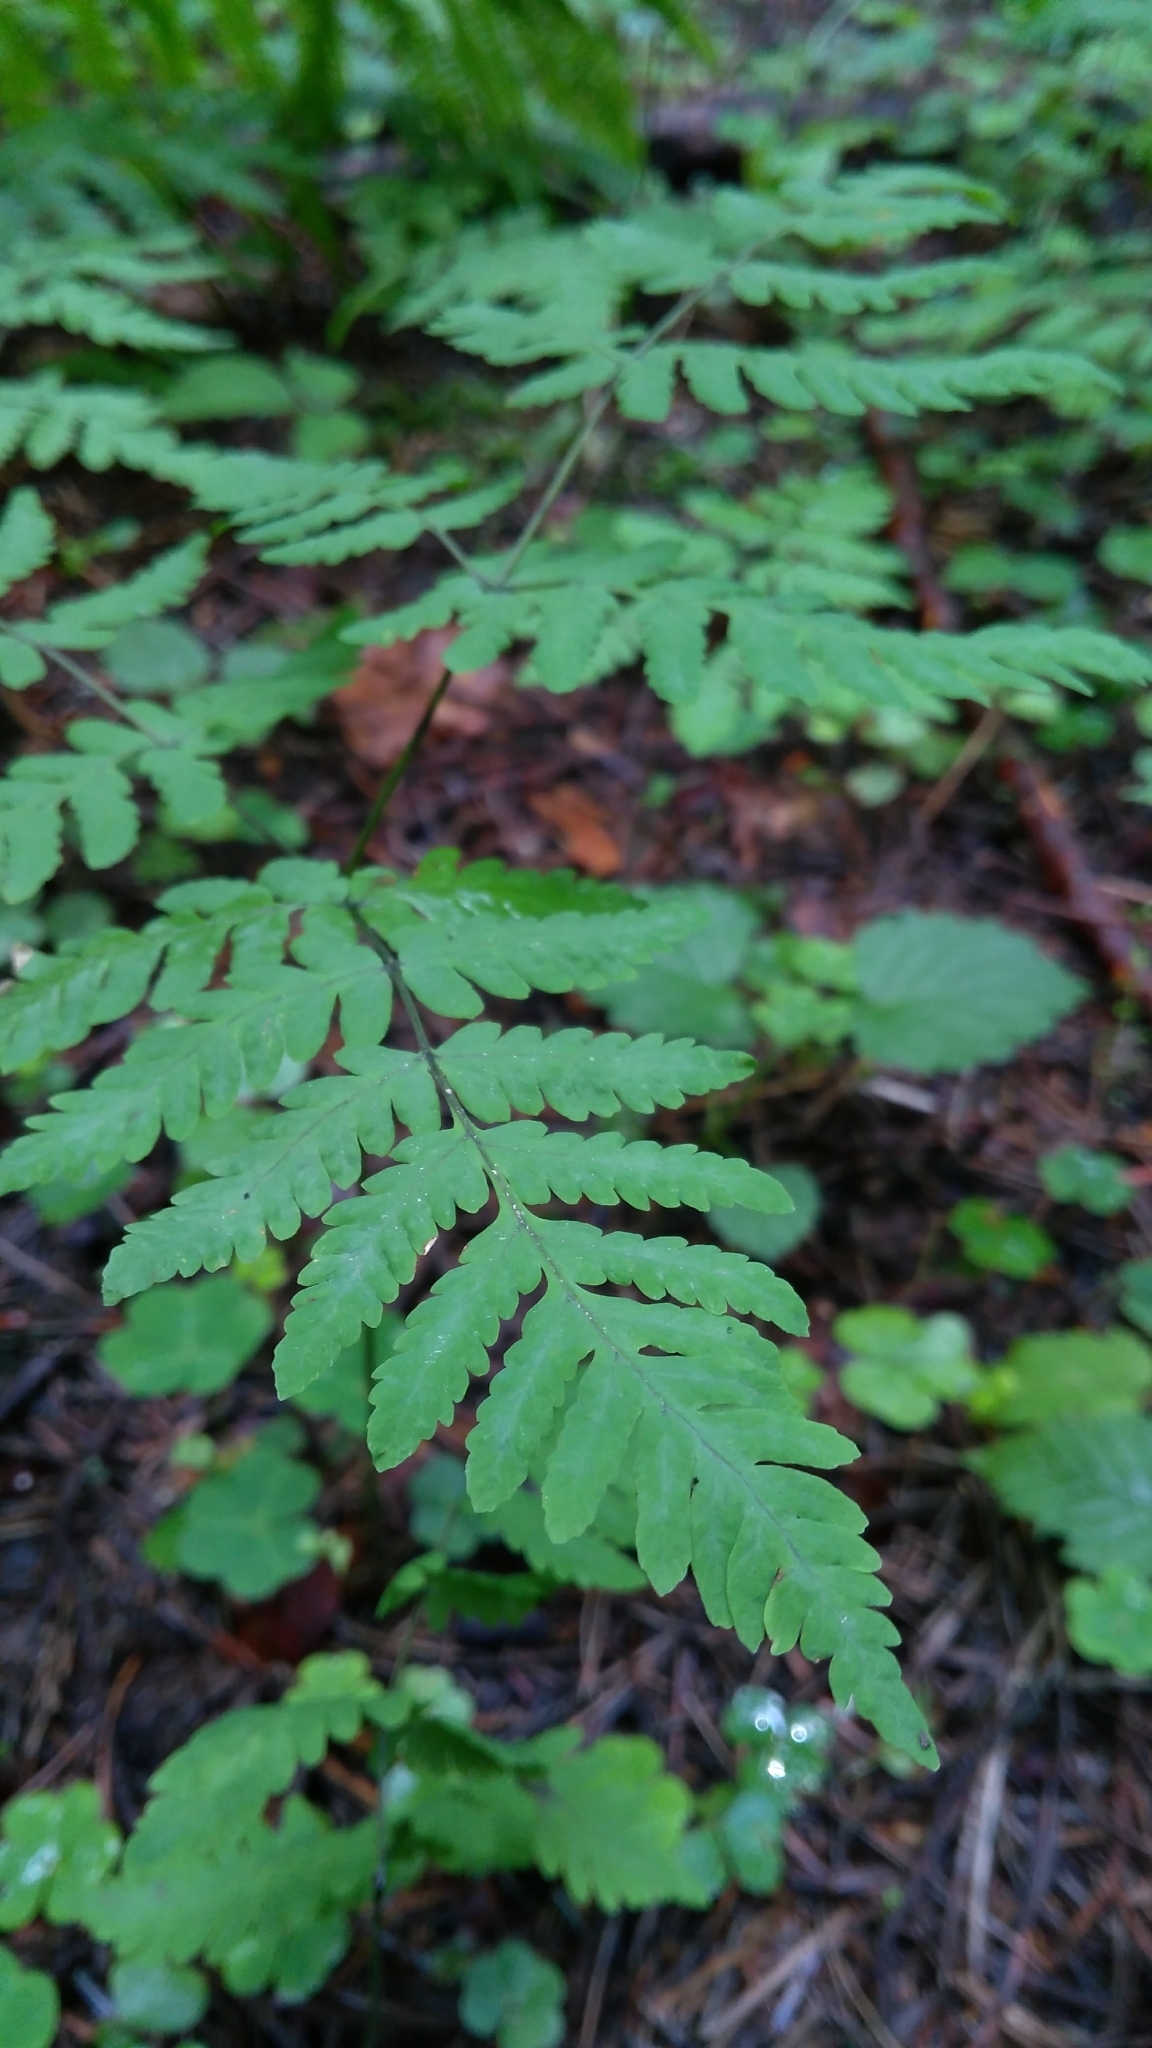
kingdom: Plantae
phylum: Tracheophyta
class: Polypodiopsida
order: Polypodiales
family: Cystopteridaceae
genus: Gymnocarpium
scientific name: Gymnocarpium dryopteris
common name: Oak fern
